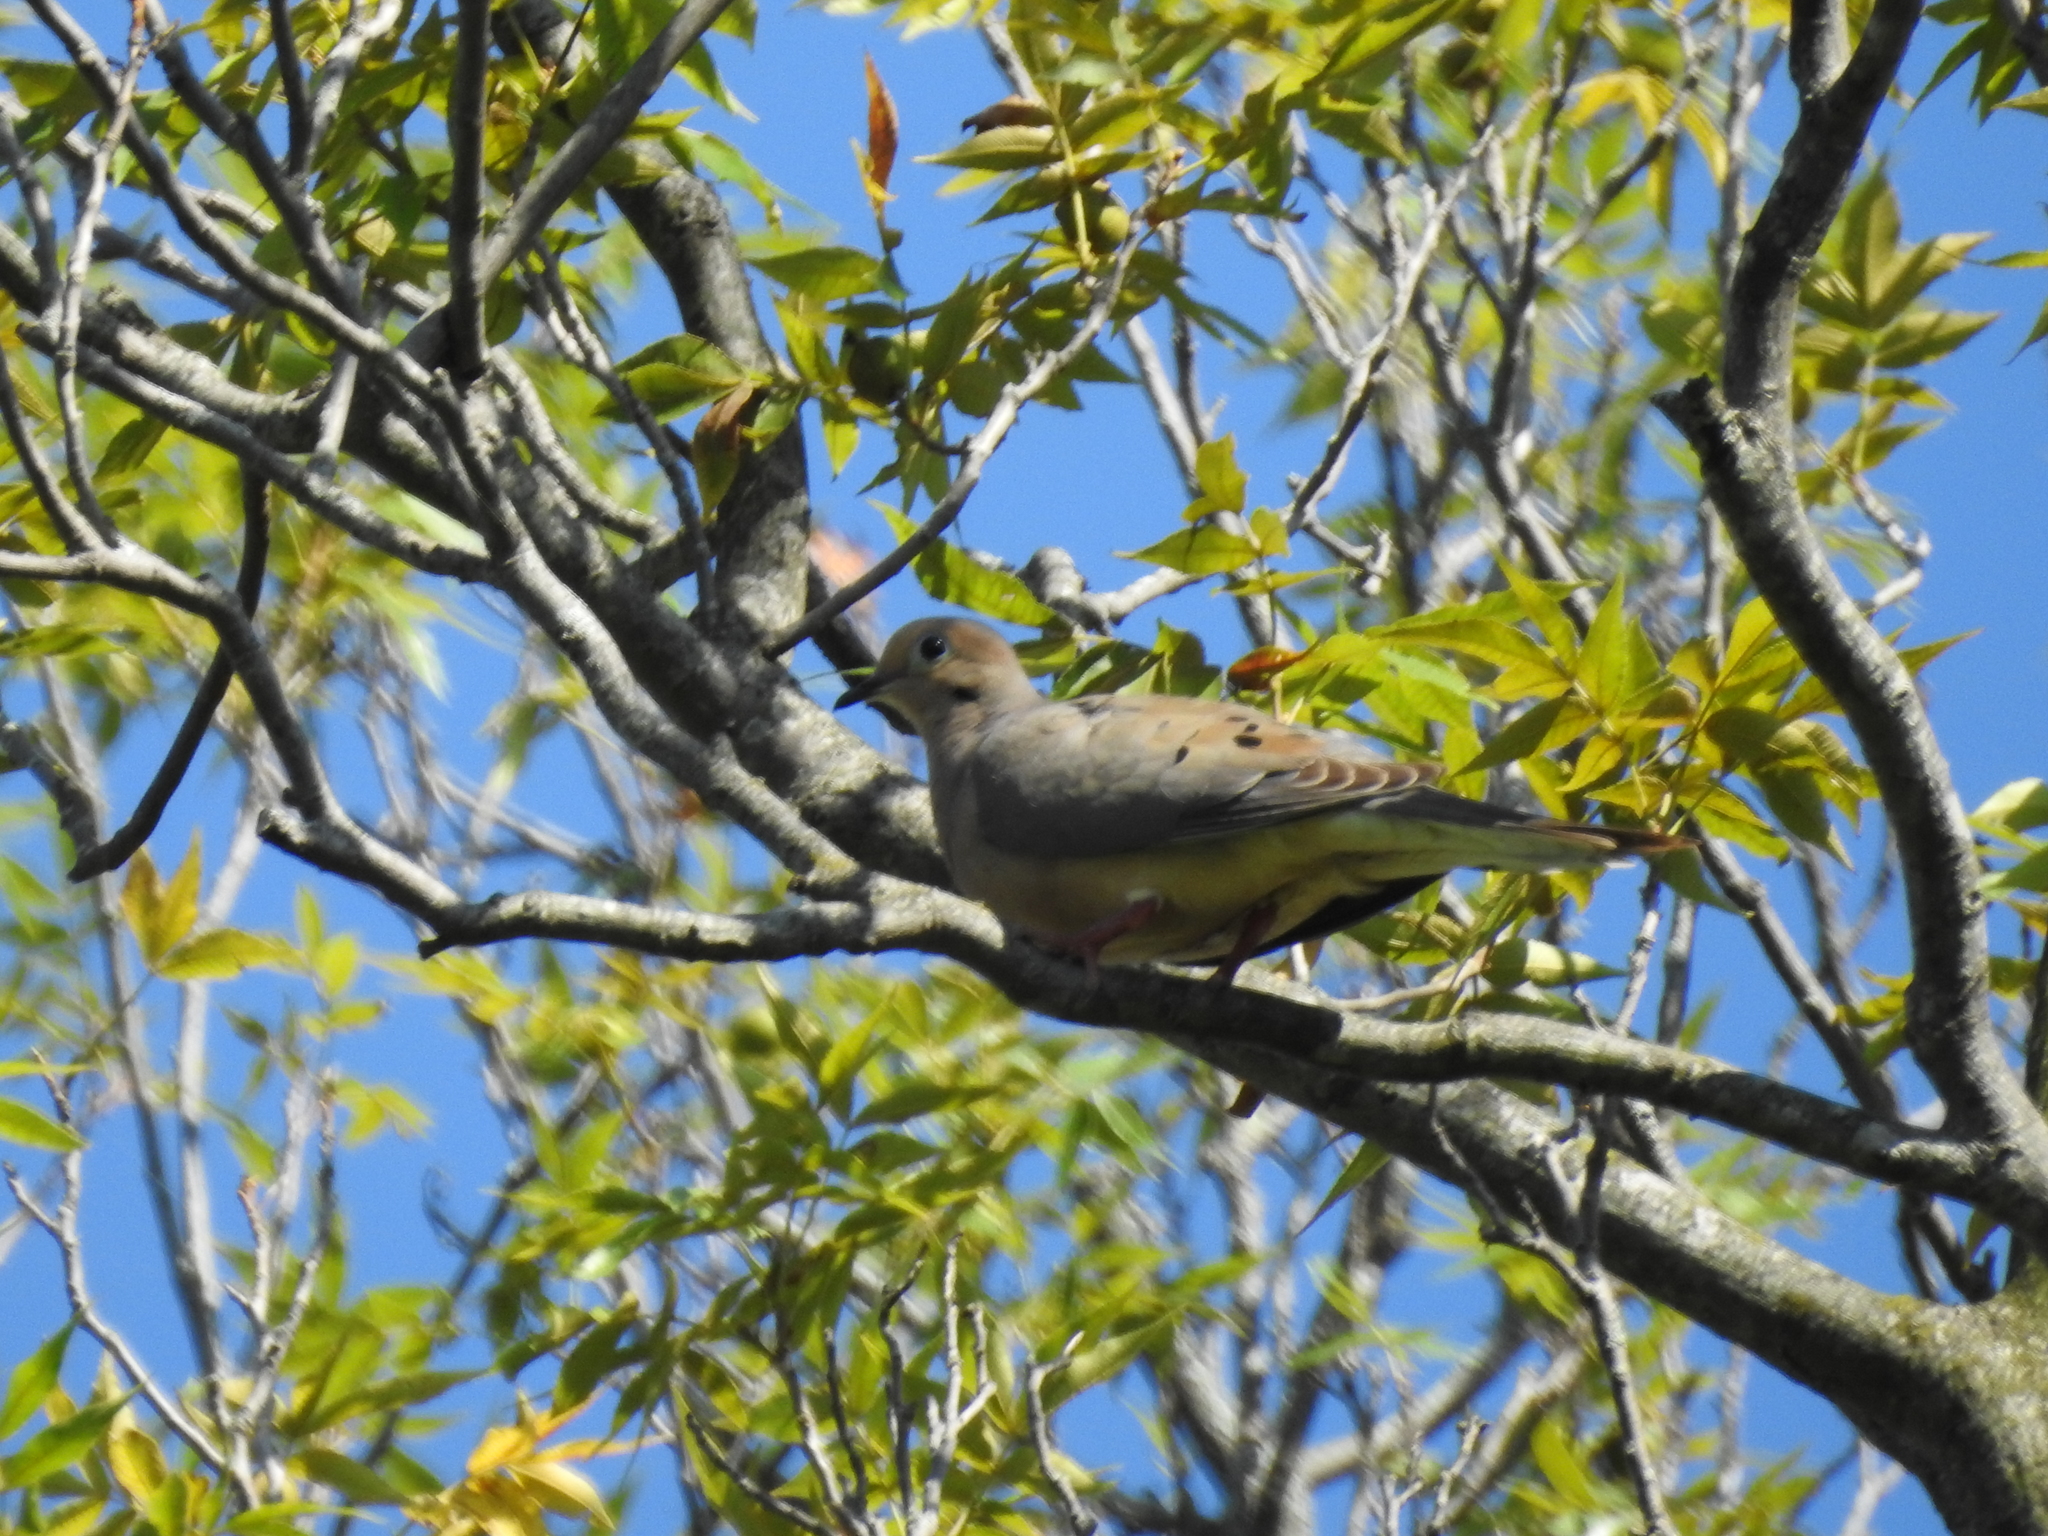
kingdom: Animalia
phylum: Chordata
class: Aves
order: Columbiformes
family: Columbidae
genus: Zenaida
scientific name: Zenaida macroura
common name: Mourning dove
